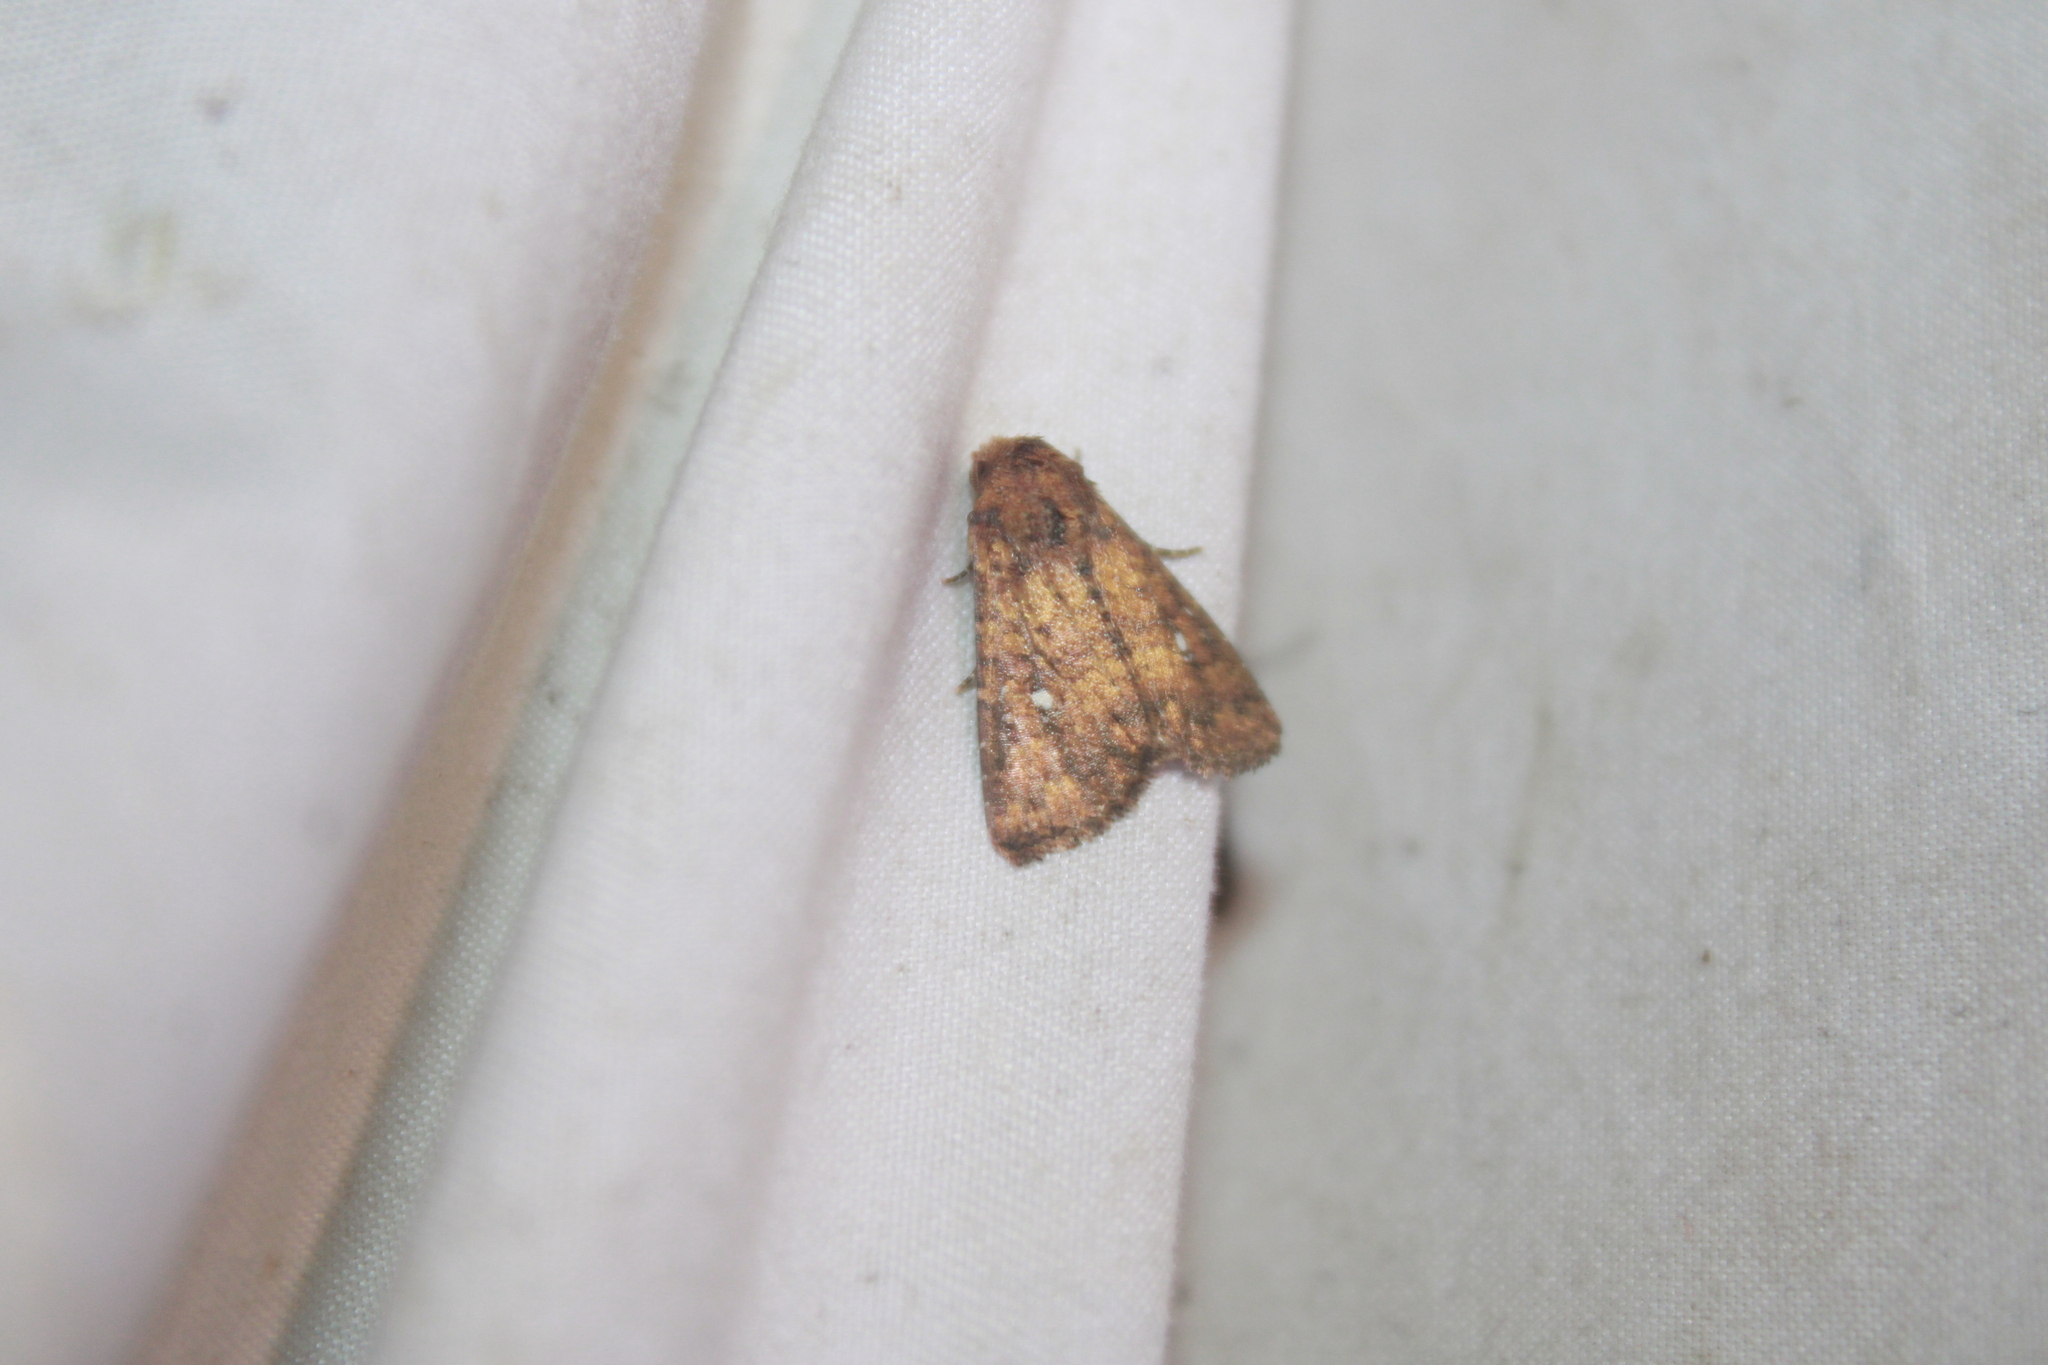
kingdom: Animalia
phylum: Arthropoda
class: Insecta
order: Lepidoptera
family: Noctuidae
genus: Condica
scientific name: Condica mobilis
